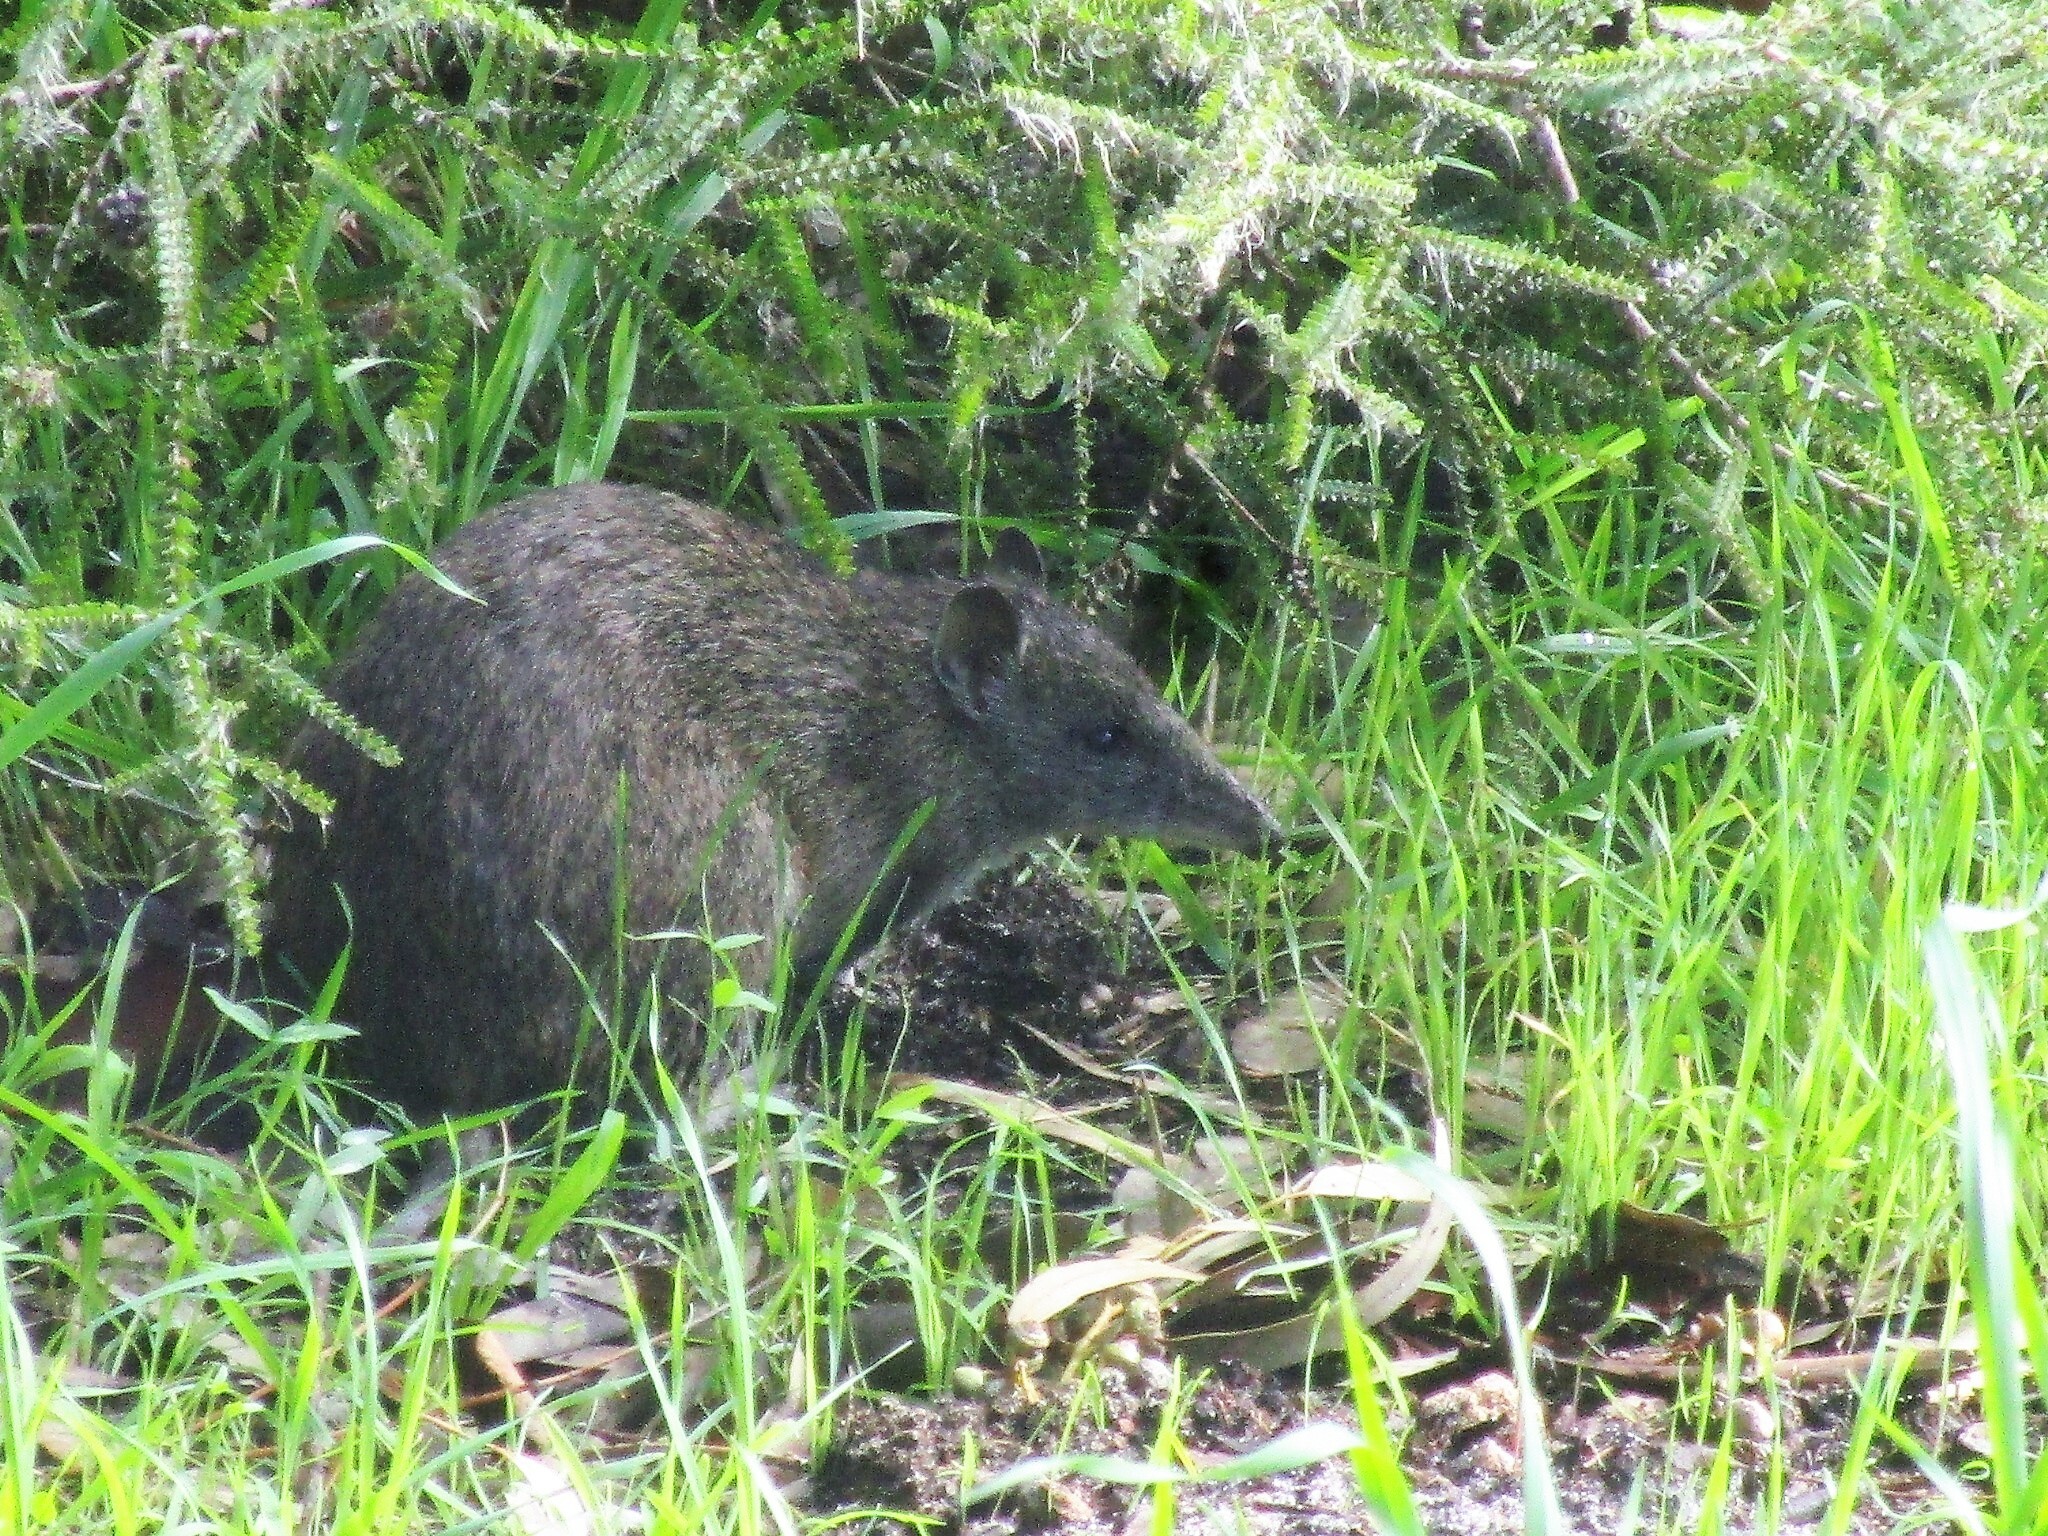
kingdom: Animalia
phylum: Chordata
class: Mammalia
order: Peramelemorphia
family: Peramelidae
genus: Isoodon
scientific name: Isoodon fusciventer
